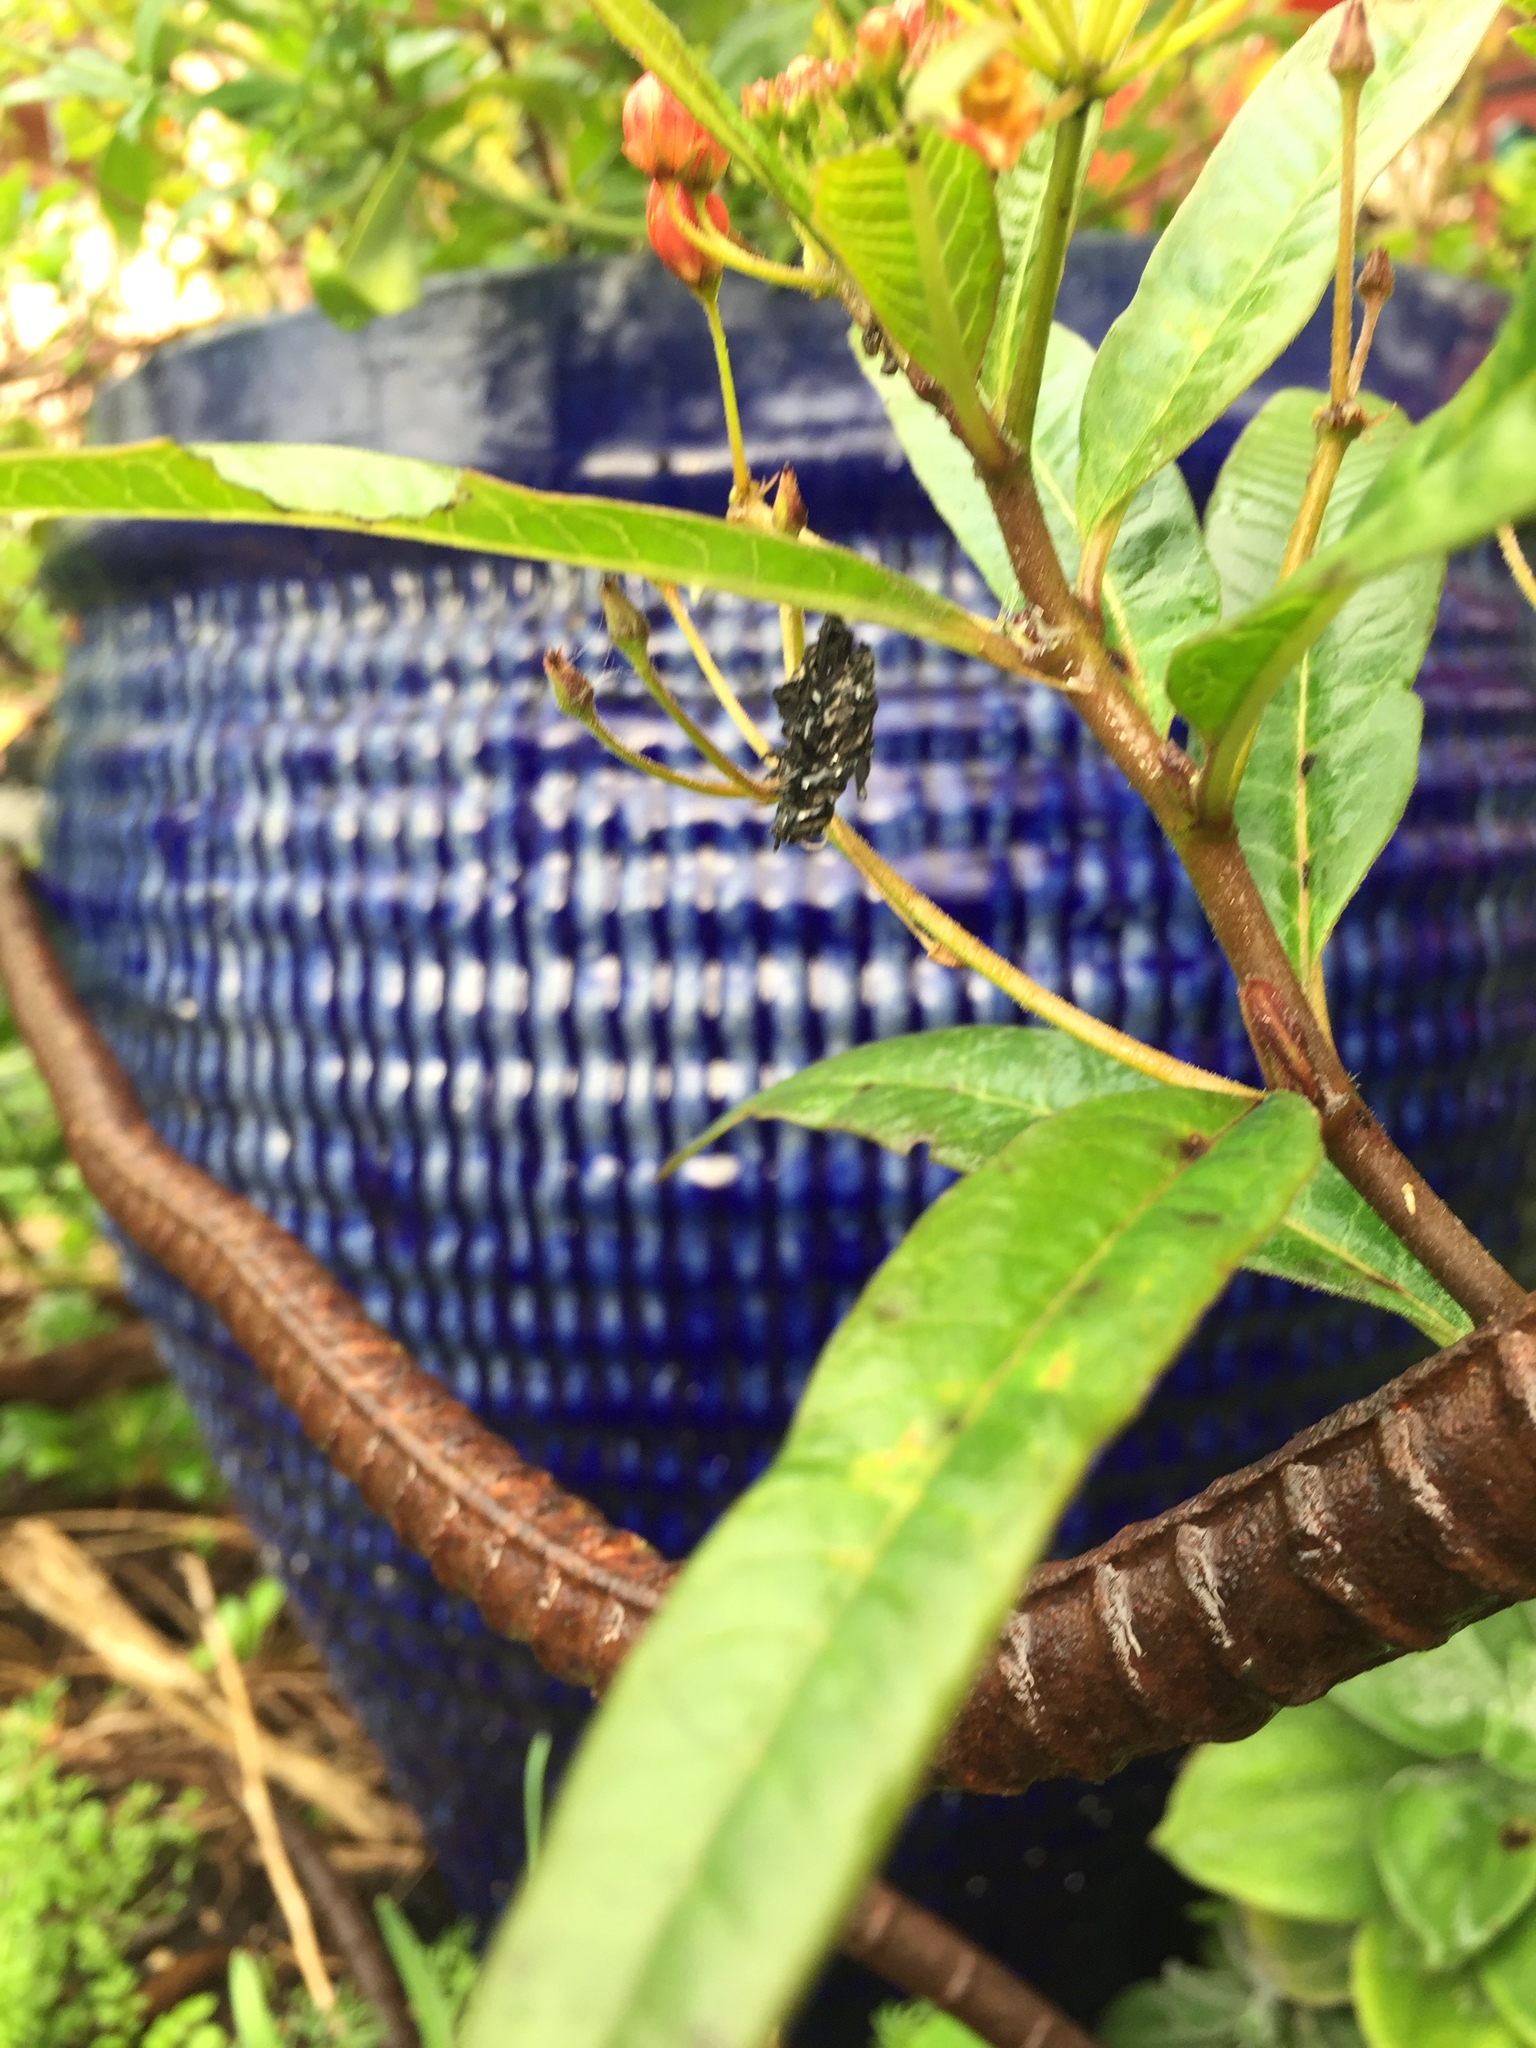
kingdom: Animalia
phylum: Arthropoda
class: Insecta
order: Lepidoptera
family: Nymphalidae
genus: Danaus
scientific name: Danaus plexippus
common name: Monarch
